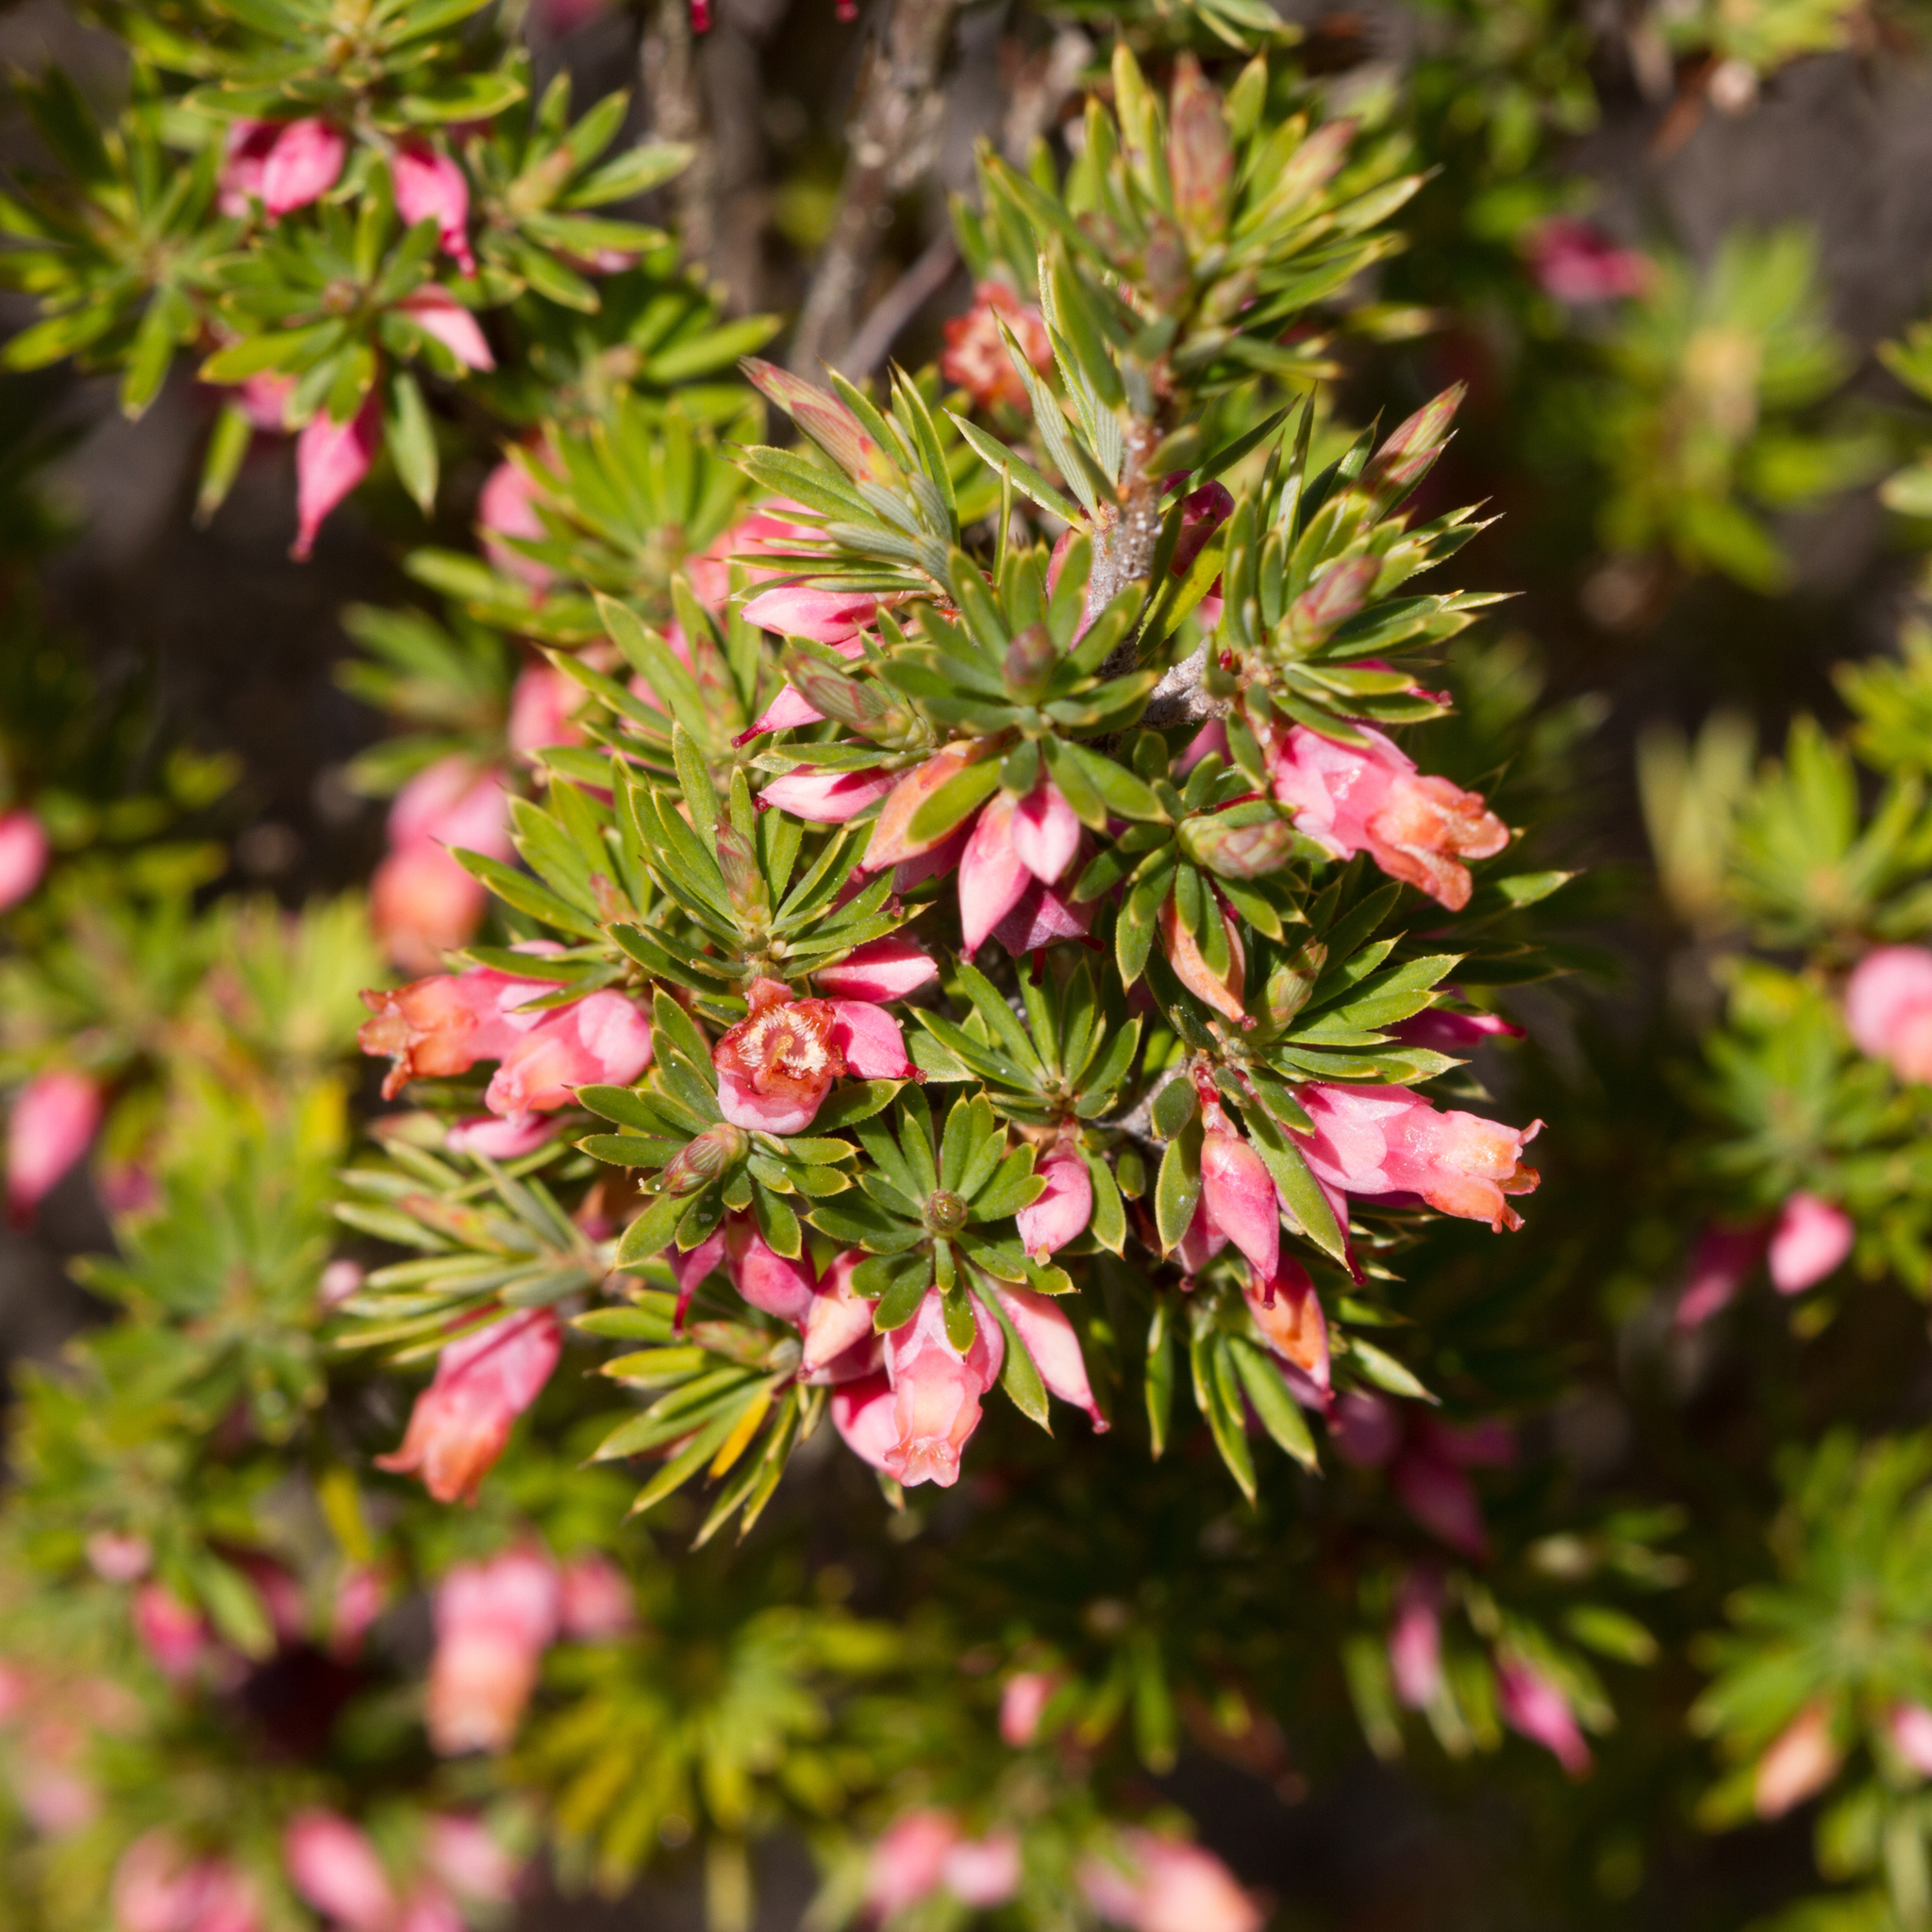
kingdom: Plantae
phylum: Tracheophyta
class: Magnoliopsida
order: Ericales
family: Ericaceae
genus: Brachyloma
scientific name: Brachyloma ericoides
